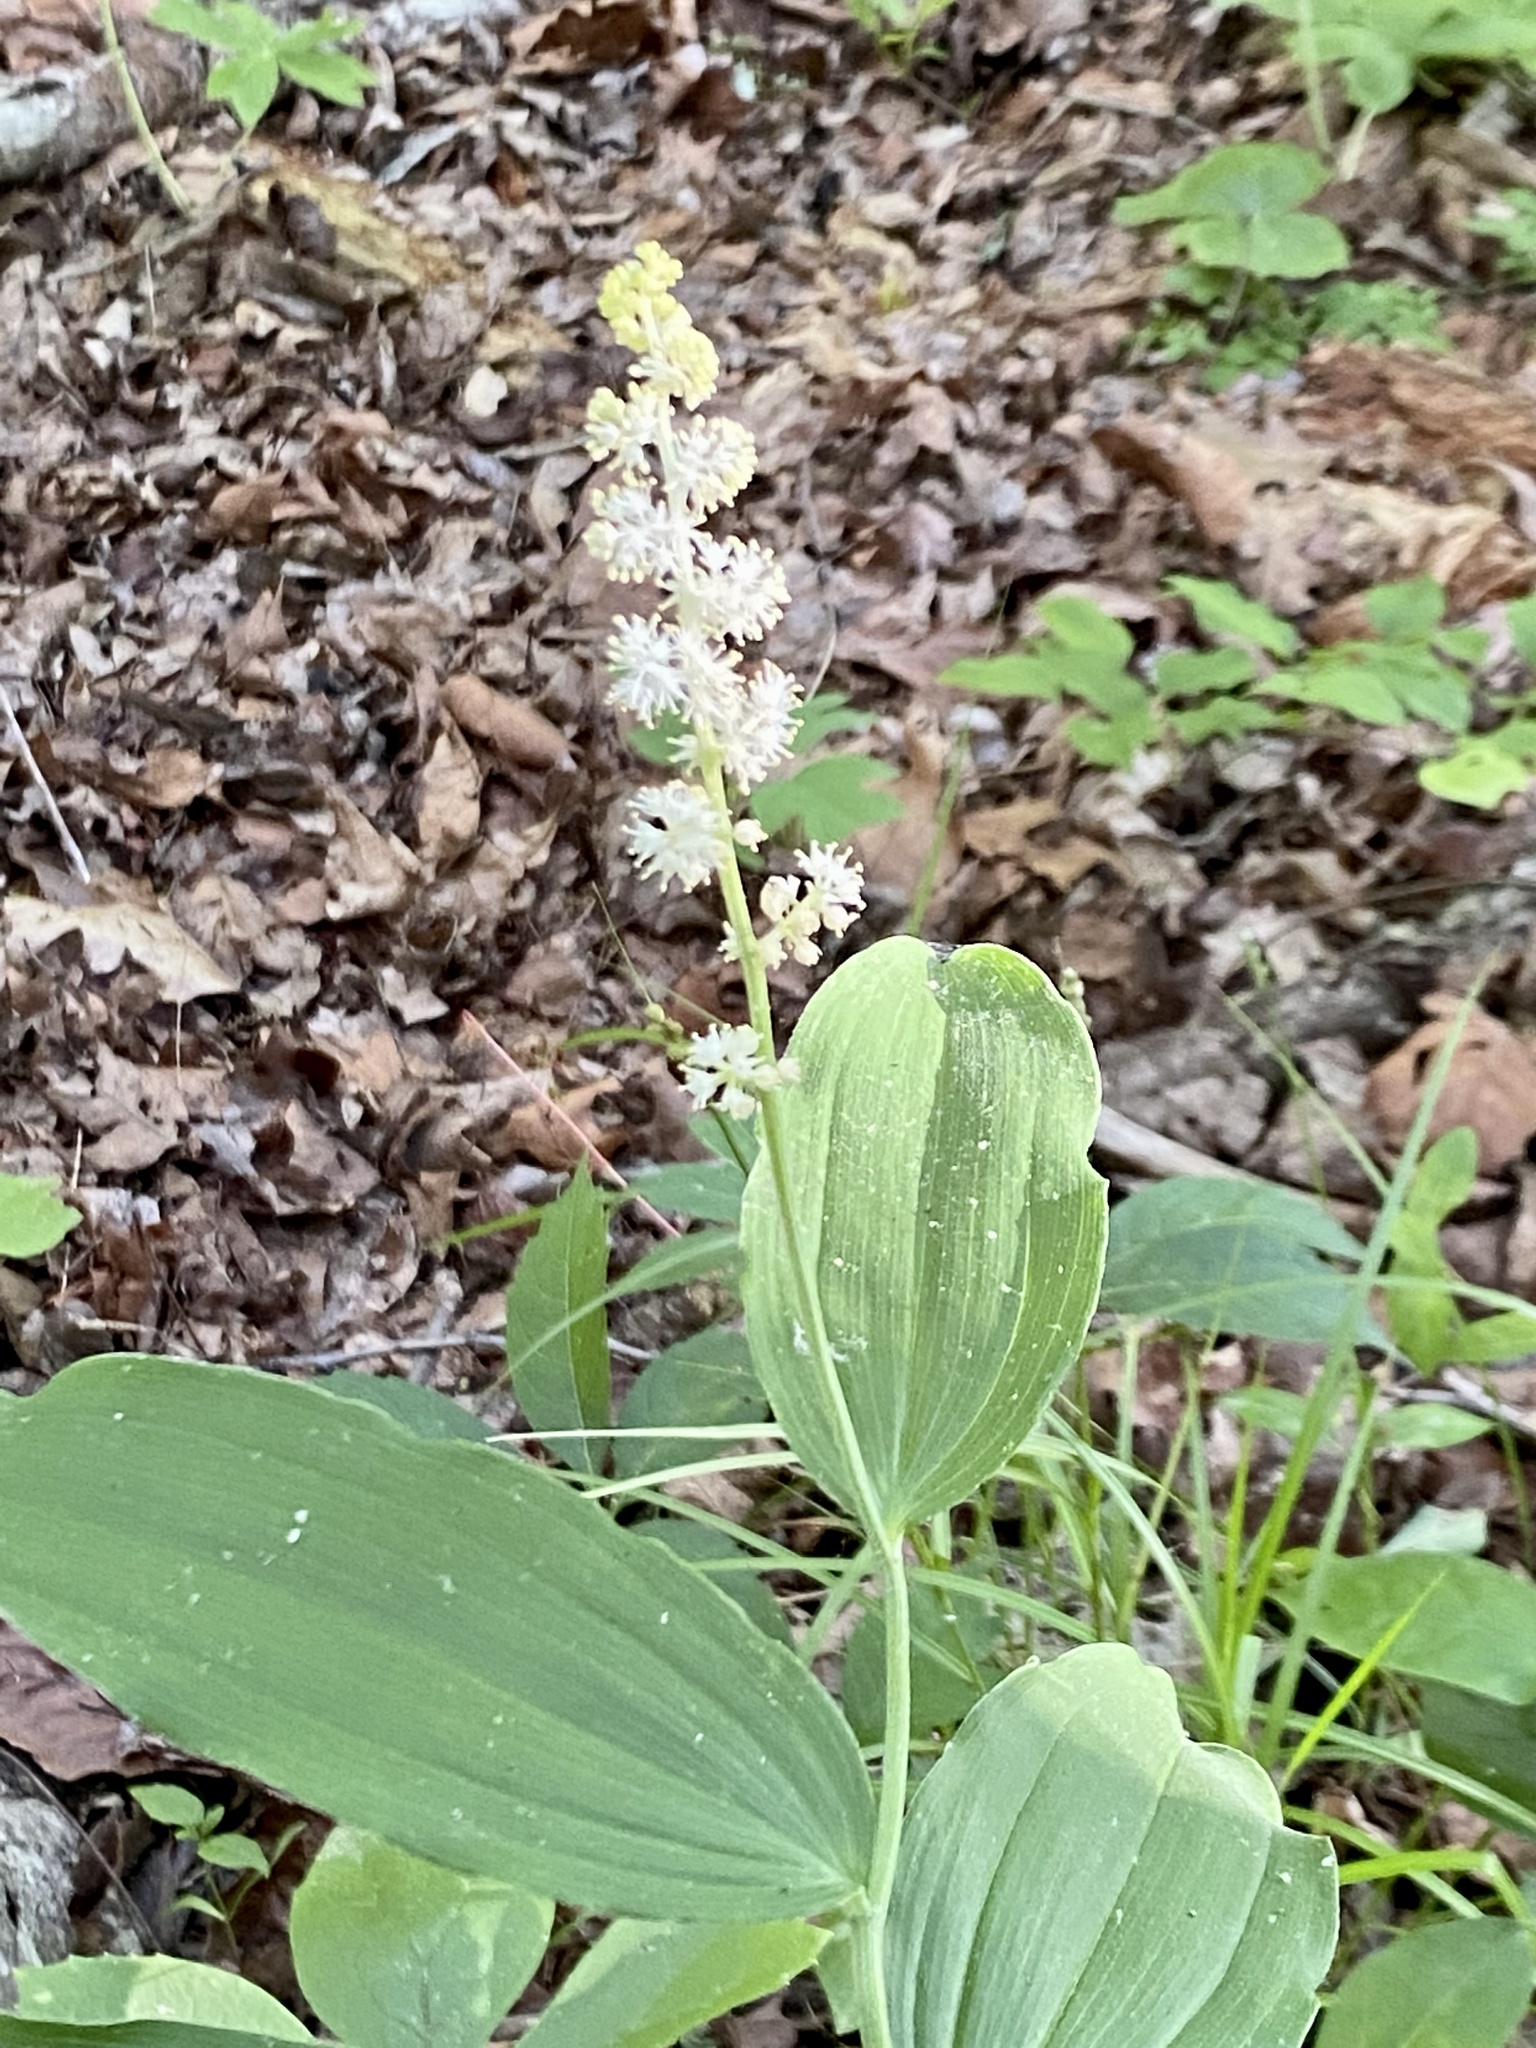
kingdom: Plantae
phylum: Tracheophyta
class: Liliopsida
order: Asparagales
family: Asparagaceae
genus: Maianthemum
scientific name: Maianthemum racemosum
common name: False spikenard
